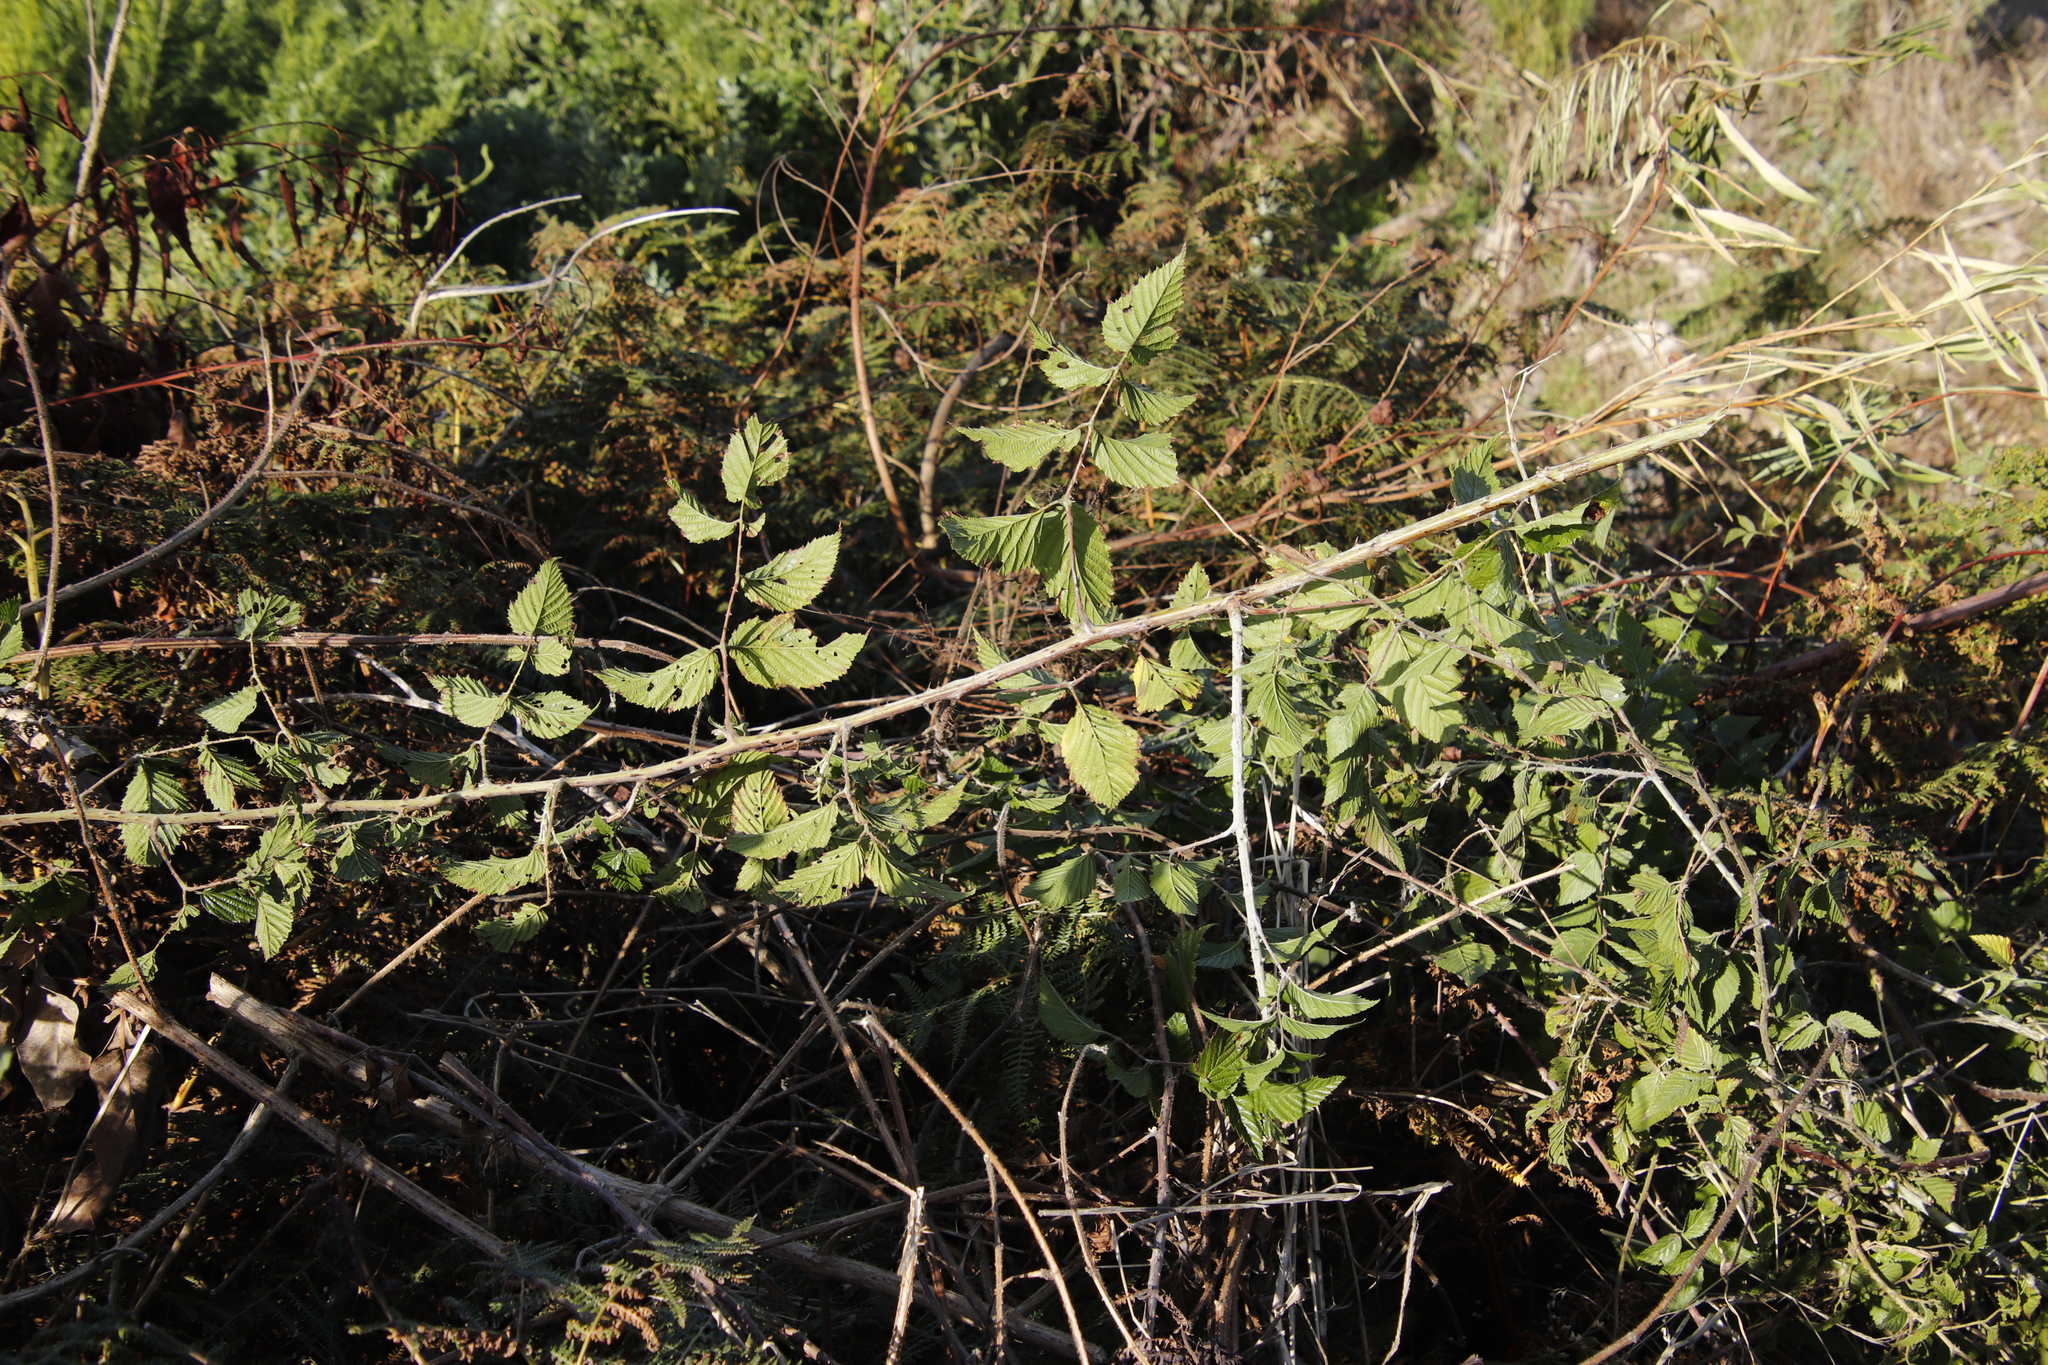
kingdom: Plantae
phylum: Tracheophyta
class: Magnoliopsida
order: Rosales
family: Rosaceae
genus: Rubus
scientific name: Rubus pinnatus
